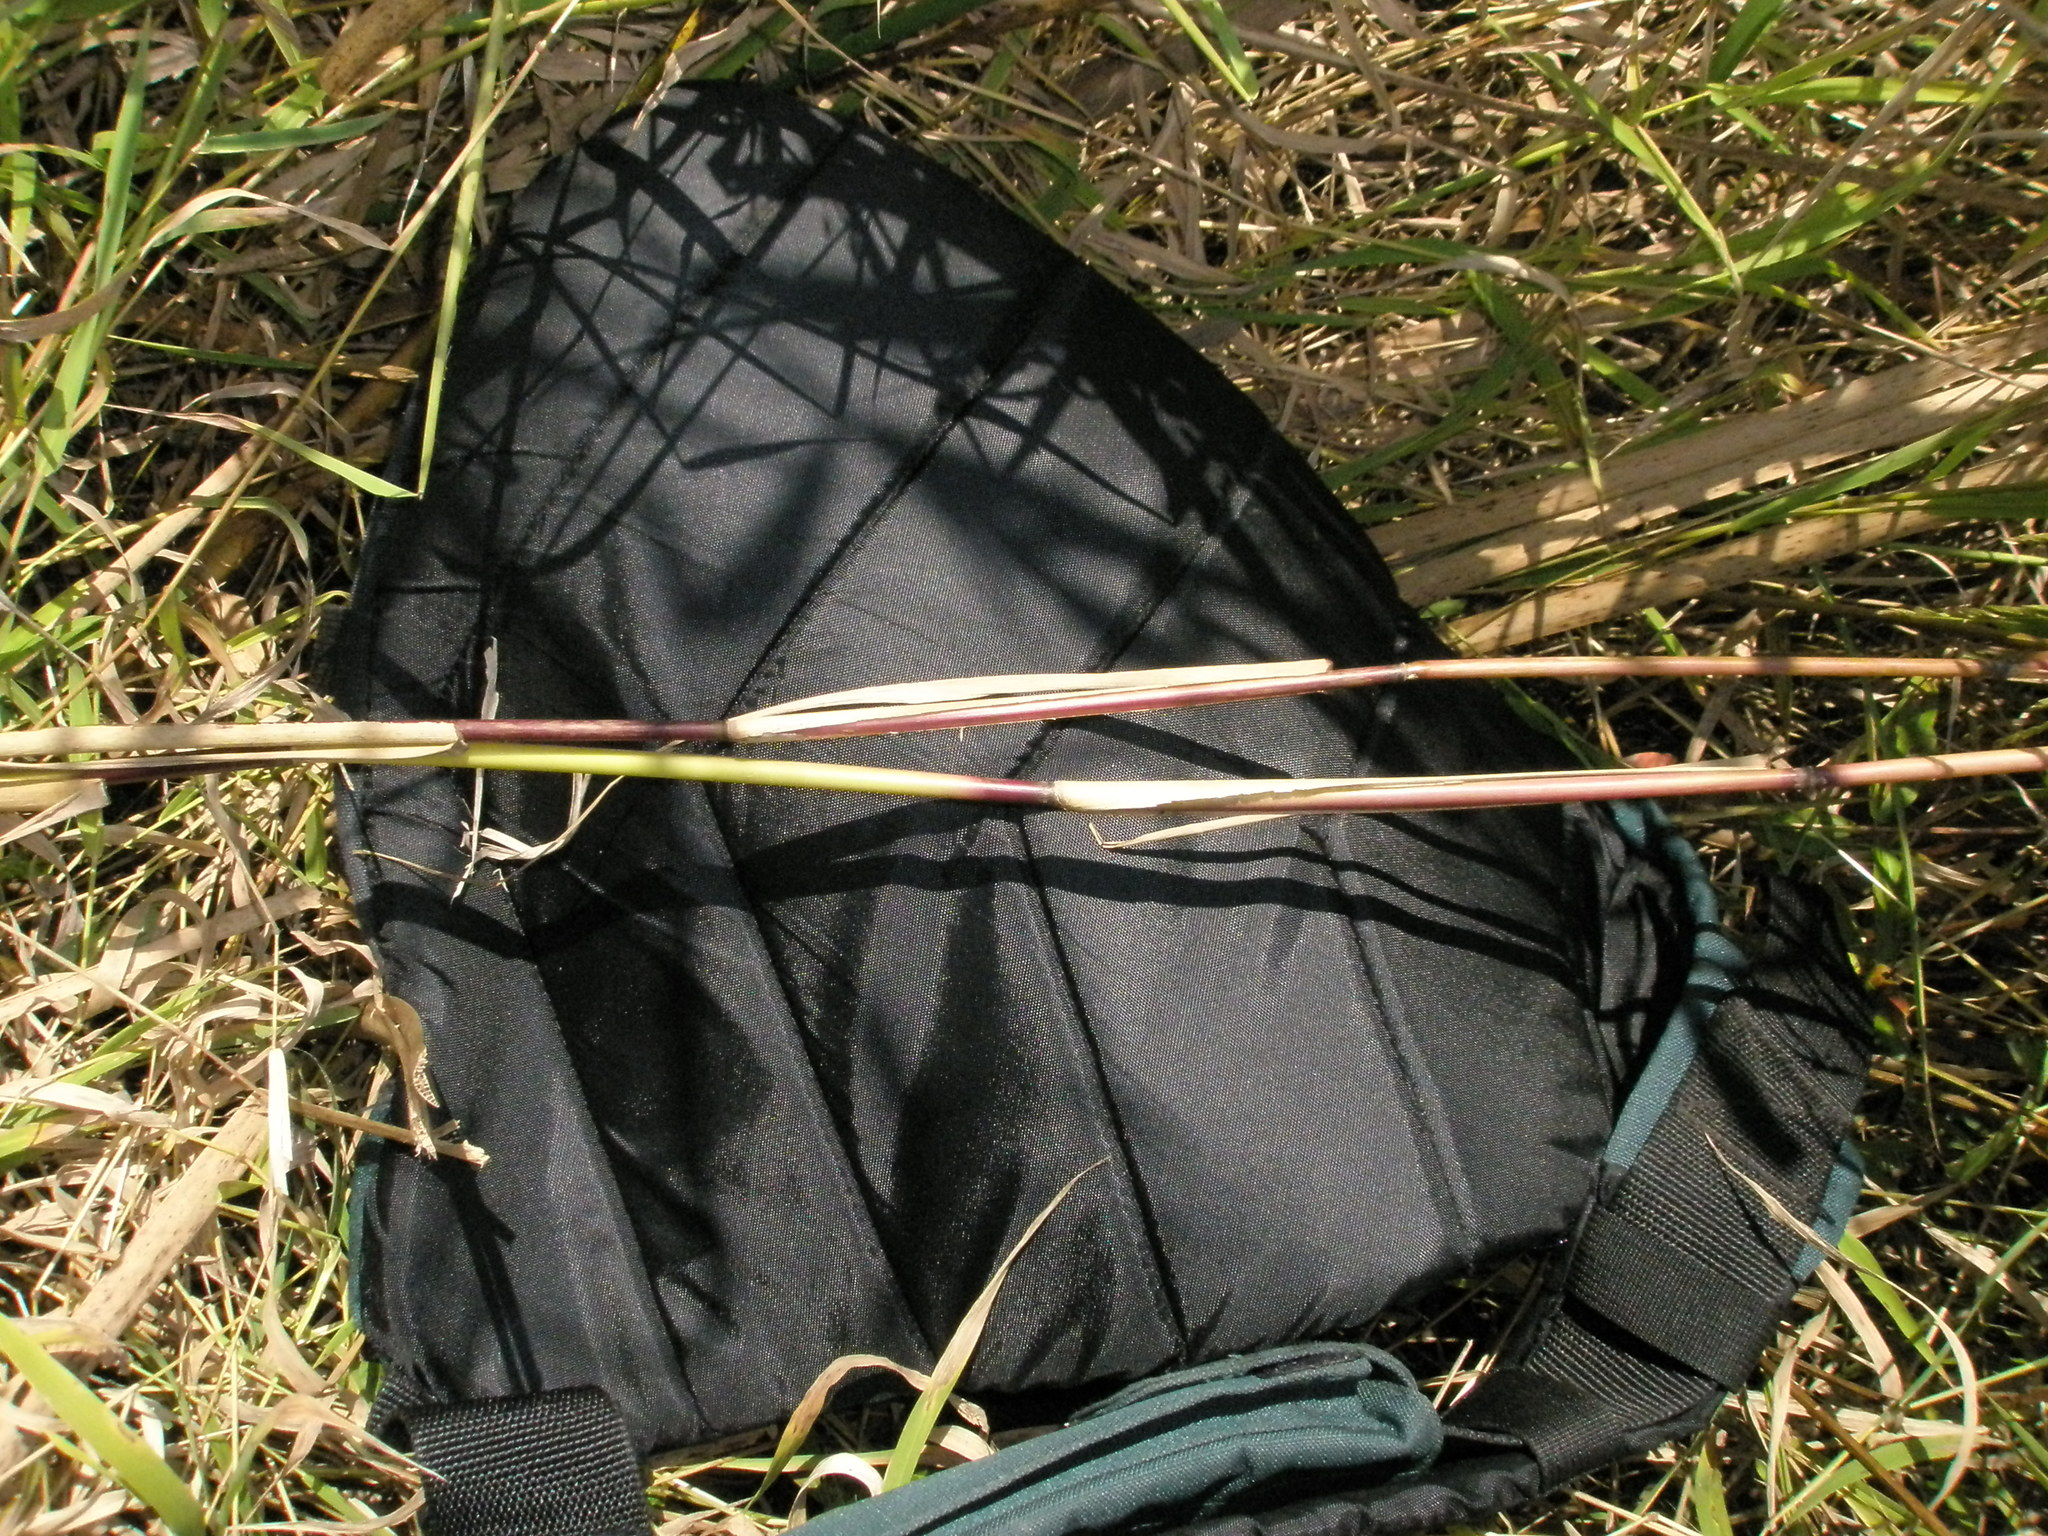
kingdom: Plantae
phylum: Tracheophyta
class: Liliopsida
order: Poales
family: Poaceae
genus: Phragmites
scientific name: Phragmites australis
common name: Common reed
